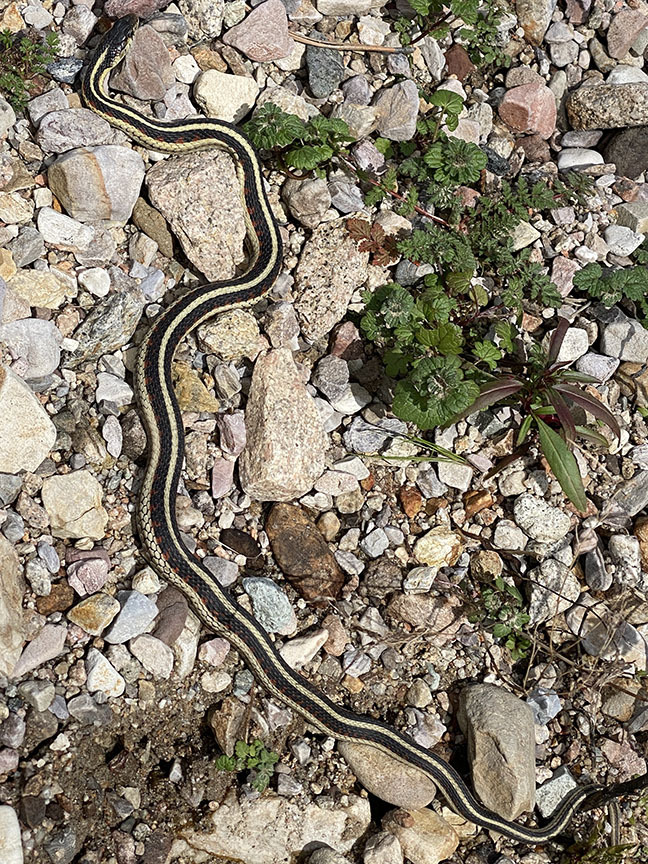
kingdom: Animalia
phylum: Chordata
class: Squamata
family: Colubridae
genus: Thamnophis
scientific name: Thamnophis sirtalis
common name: Common garter snake
